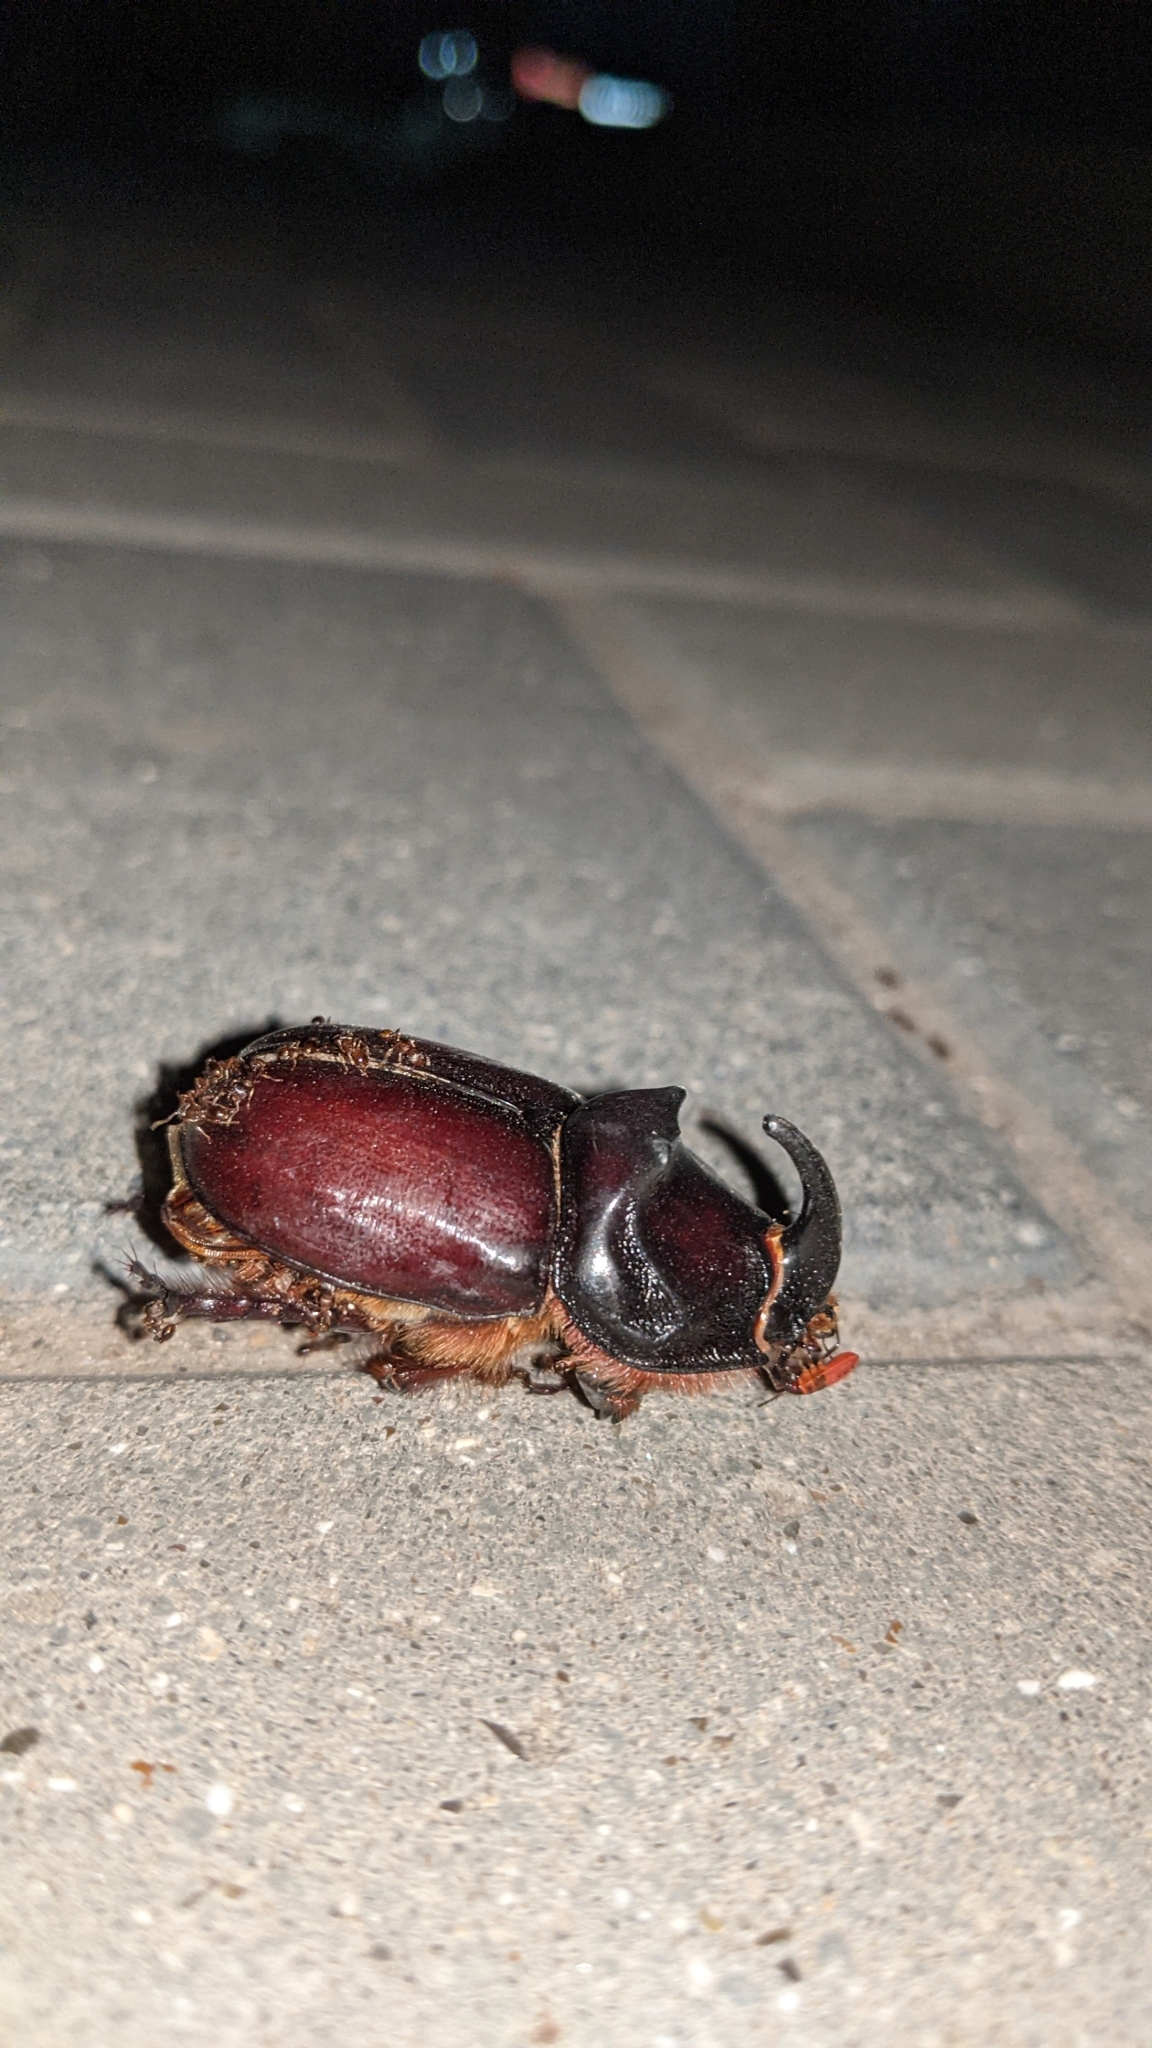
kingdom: Animalia
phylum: Arthropoda
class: Insecta
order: Coleoptera
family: Scarabaeidae
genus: Oryctes
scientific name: Oryctes nasicornis
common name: European rhinoceros beetle
